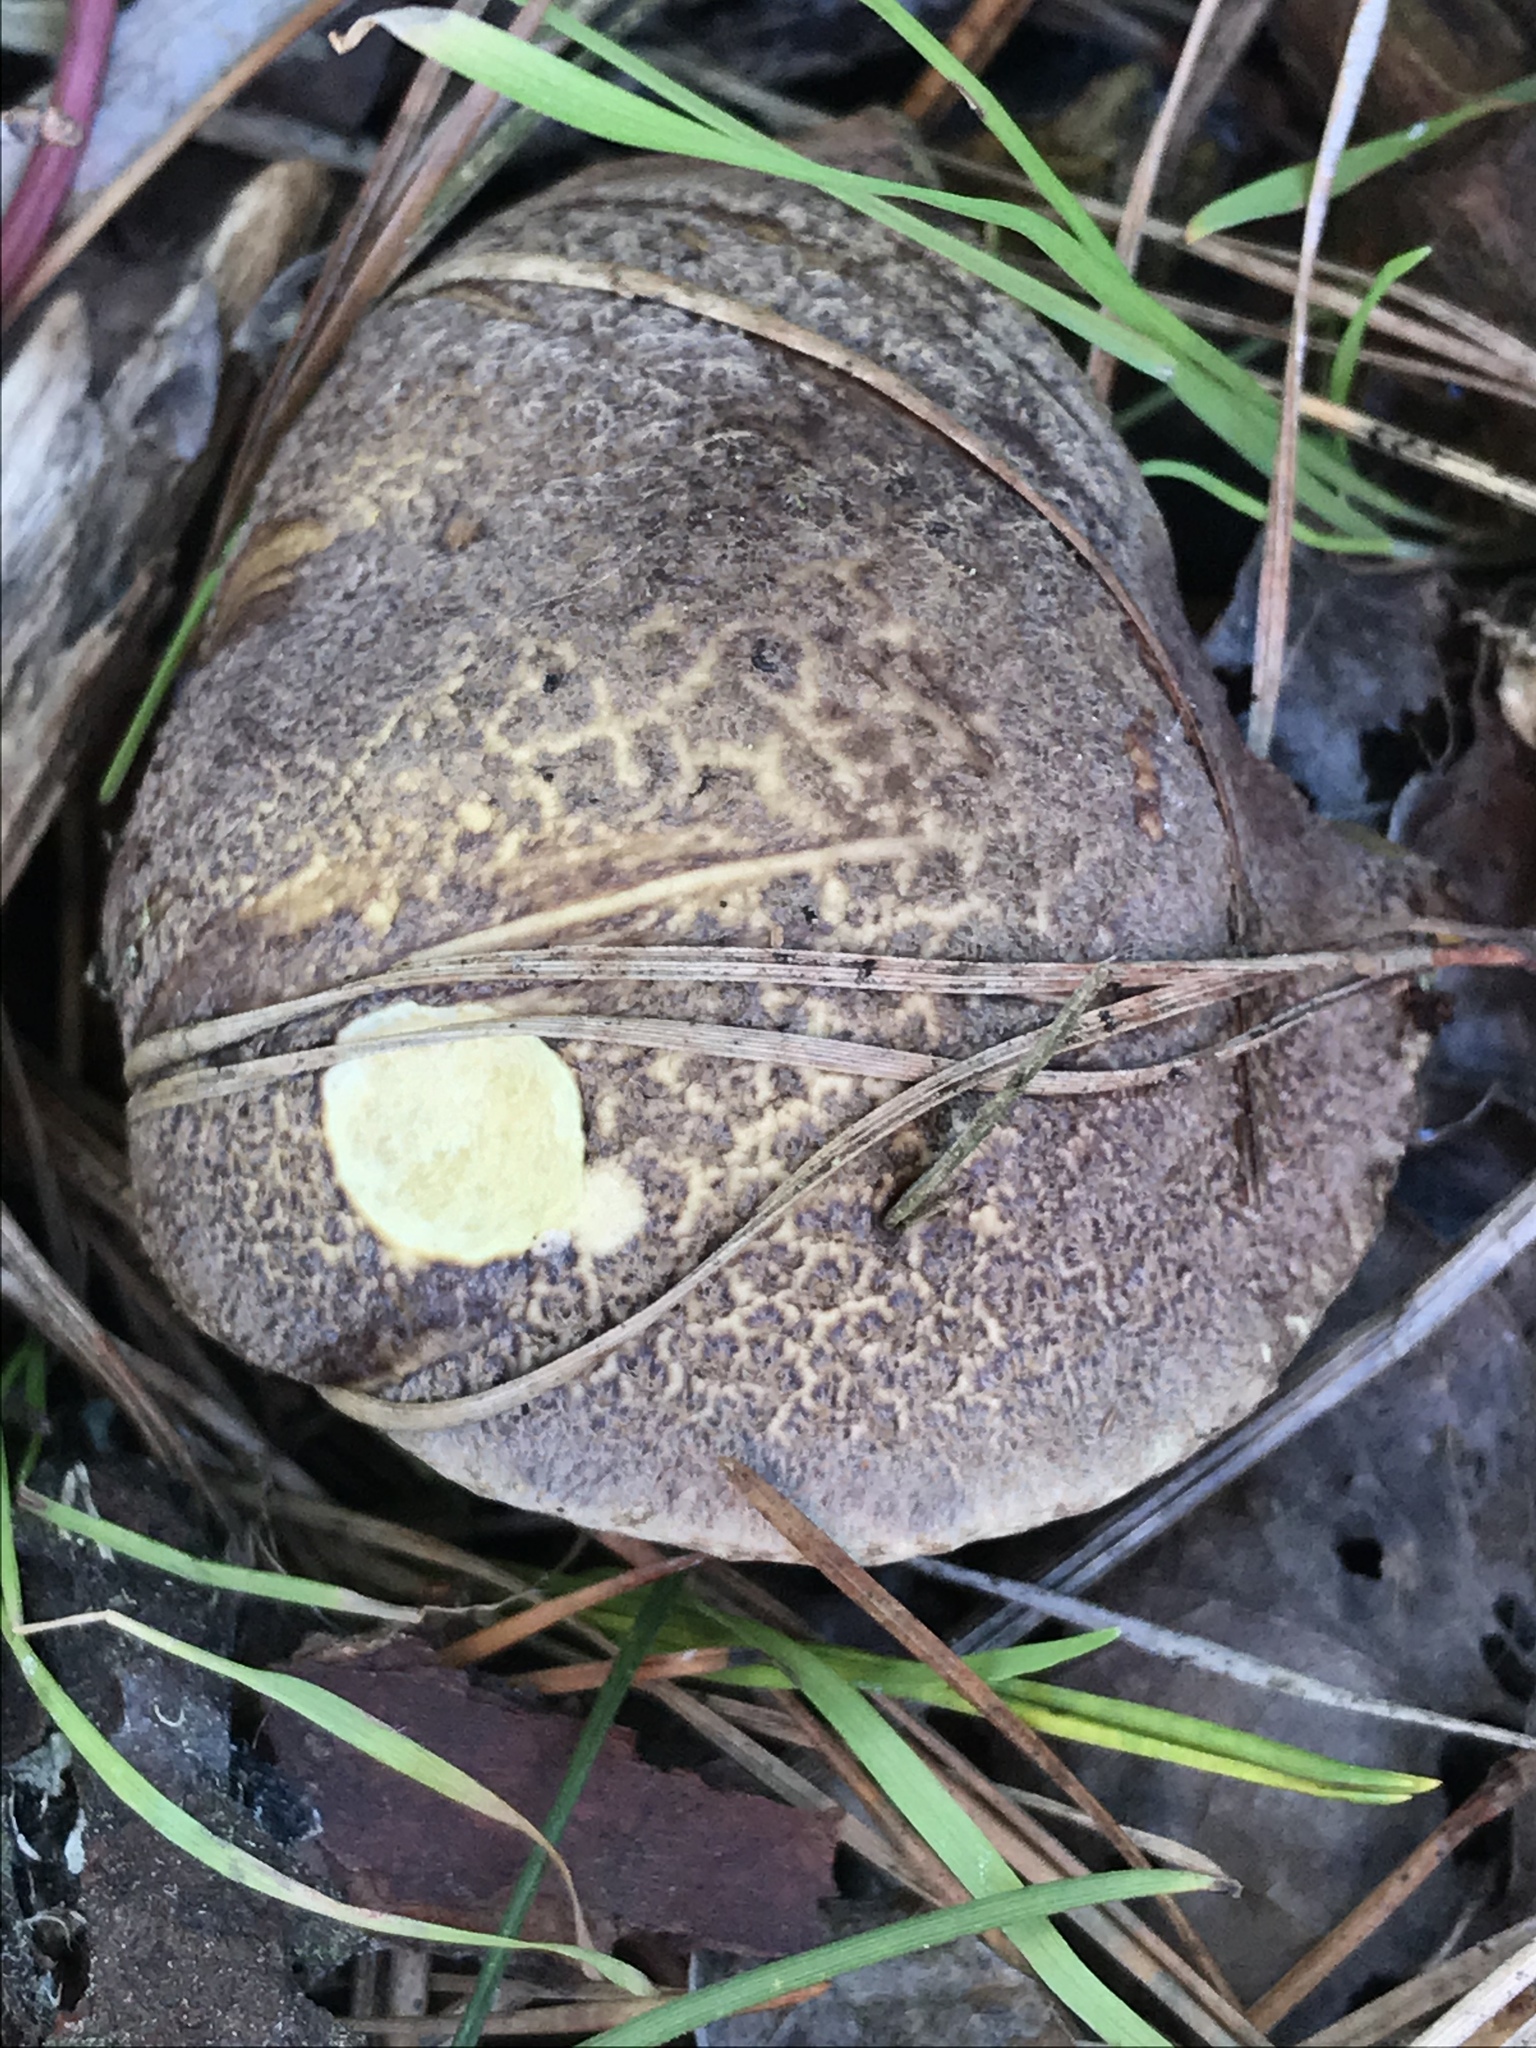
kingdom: Fungi
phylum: Basidiomycota
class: Agaricomycetes
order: Boletales
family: Suillaceae
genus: Suillus
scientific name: Suillus fuscotomentosus
